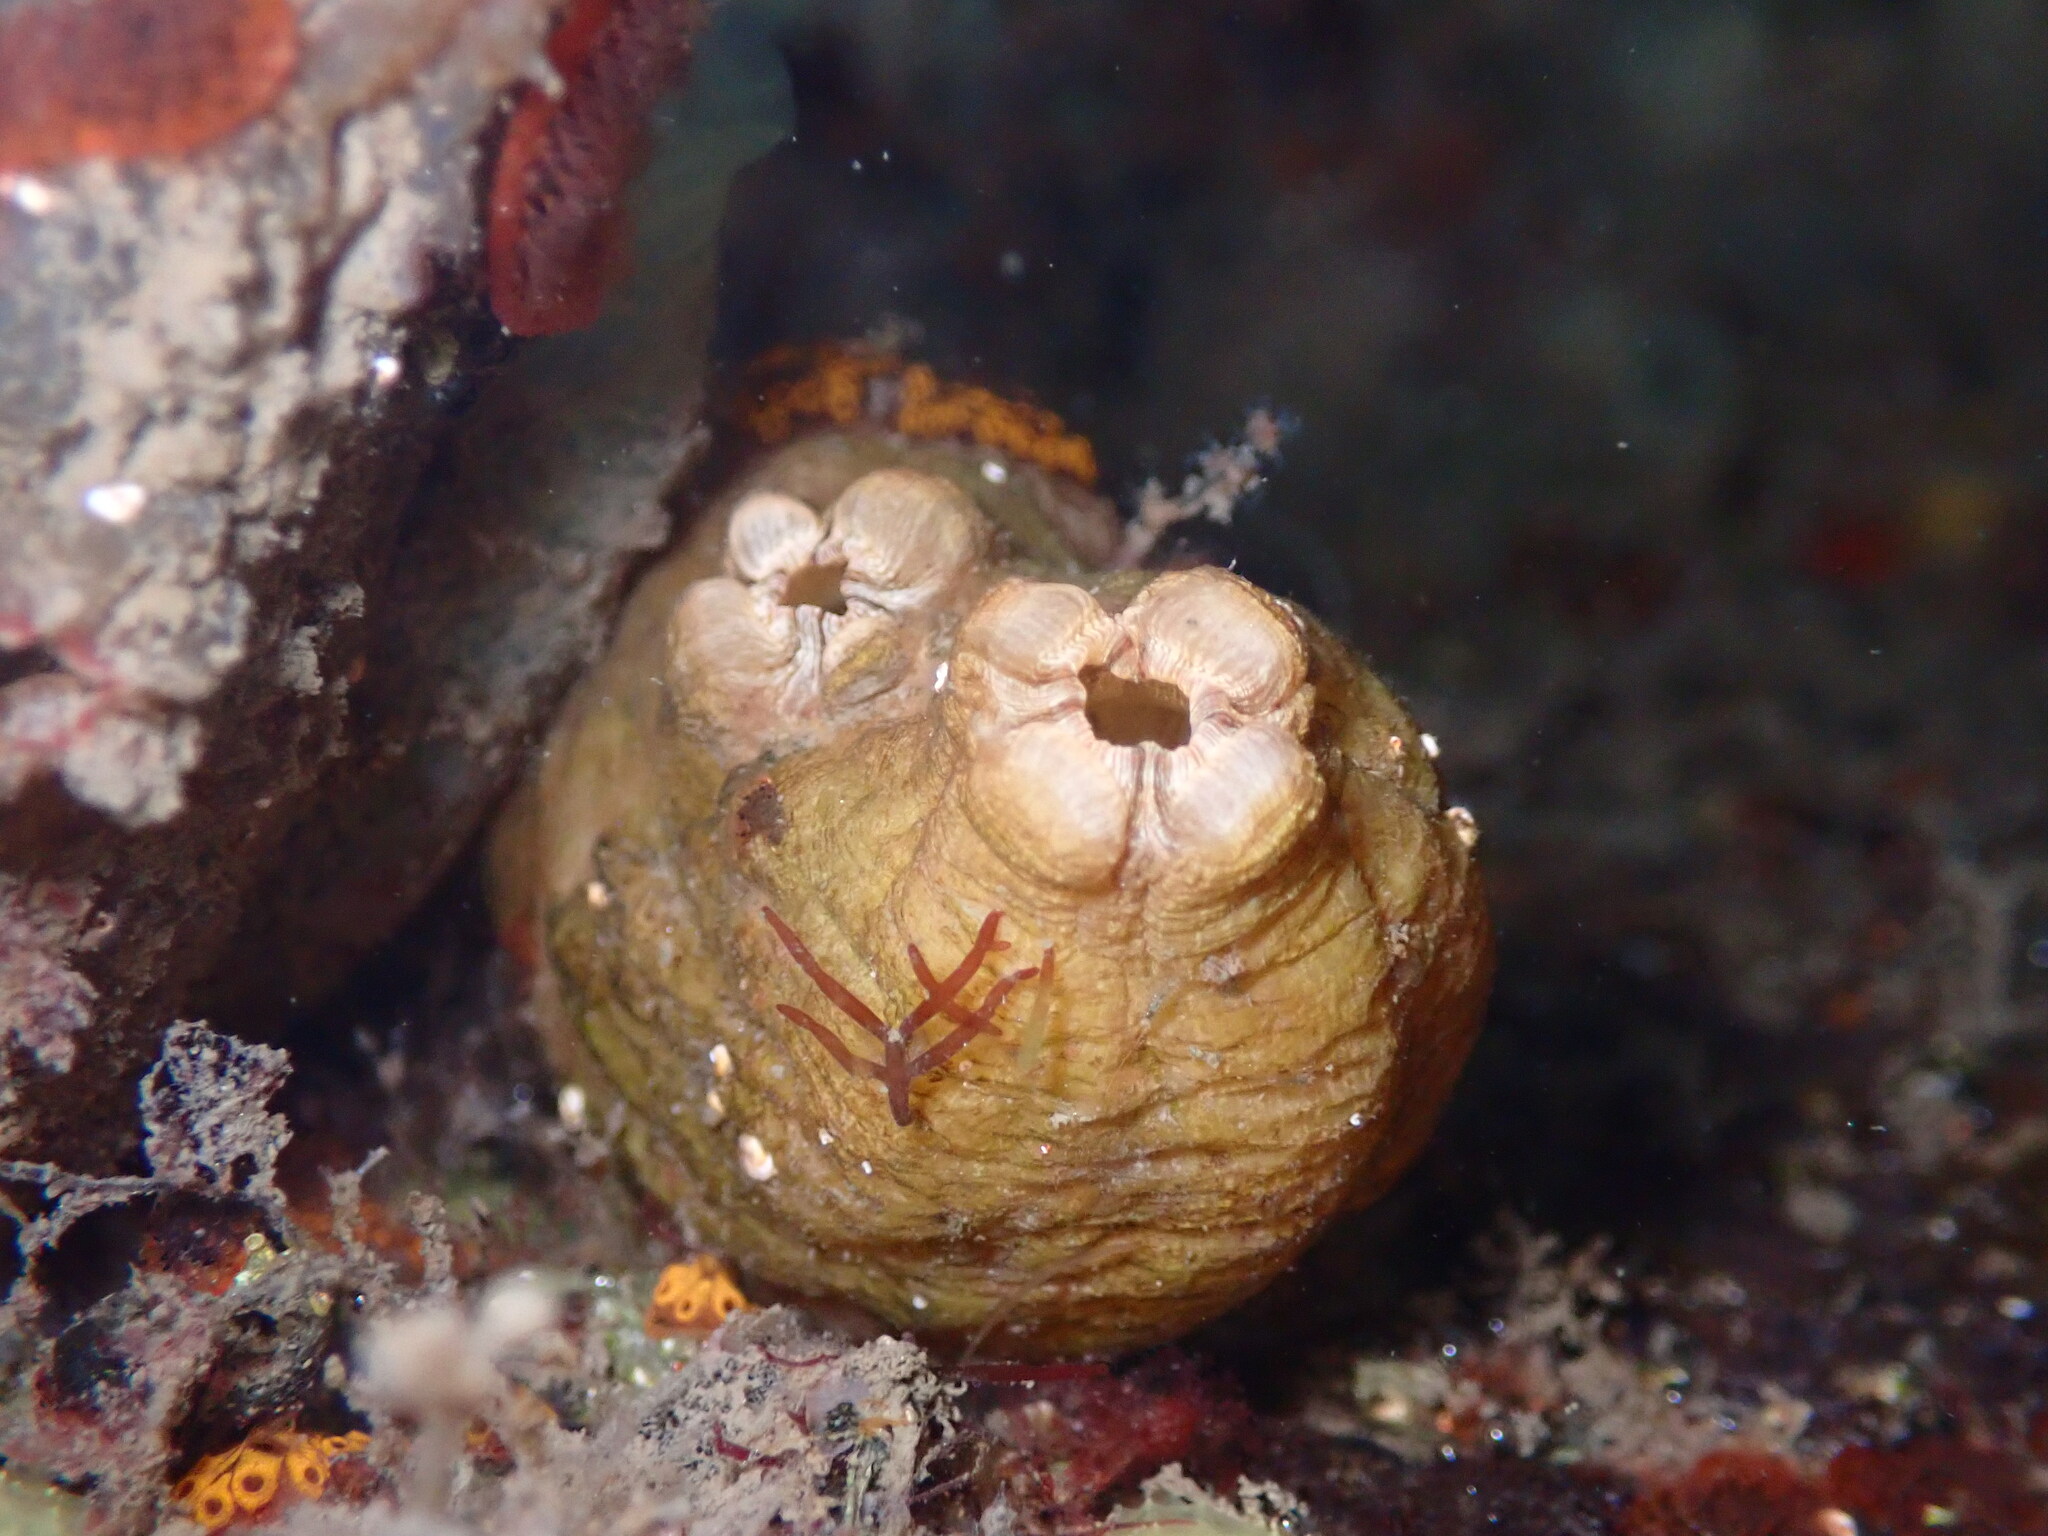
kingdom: Animalia
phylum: Chordata
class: Ascidiacea
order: Stolidobranchia
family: Styelidae
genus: Styela
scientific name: Styela plicata
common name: Pleated tunicate
